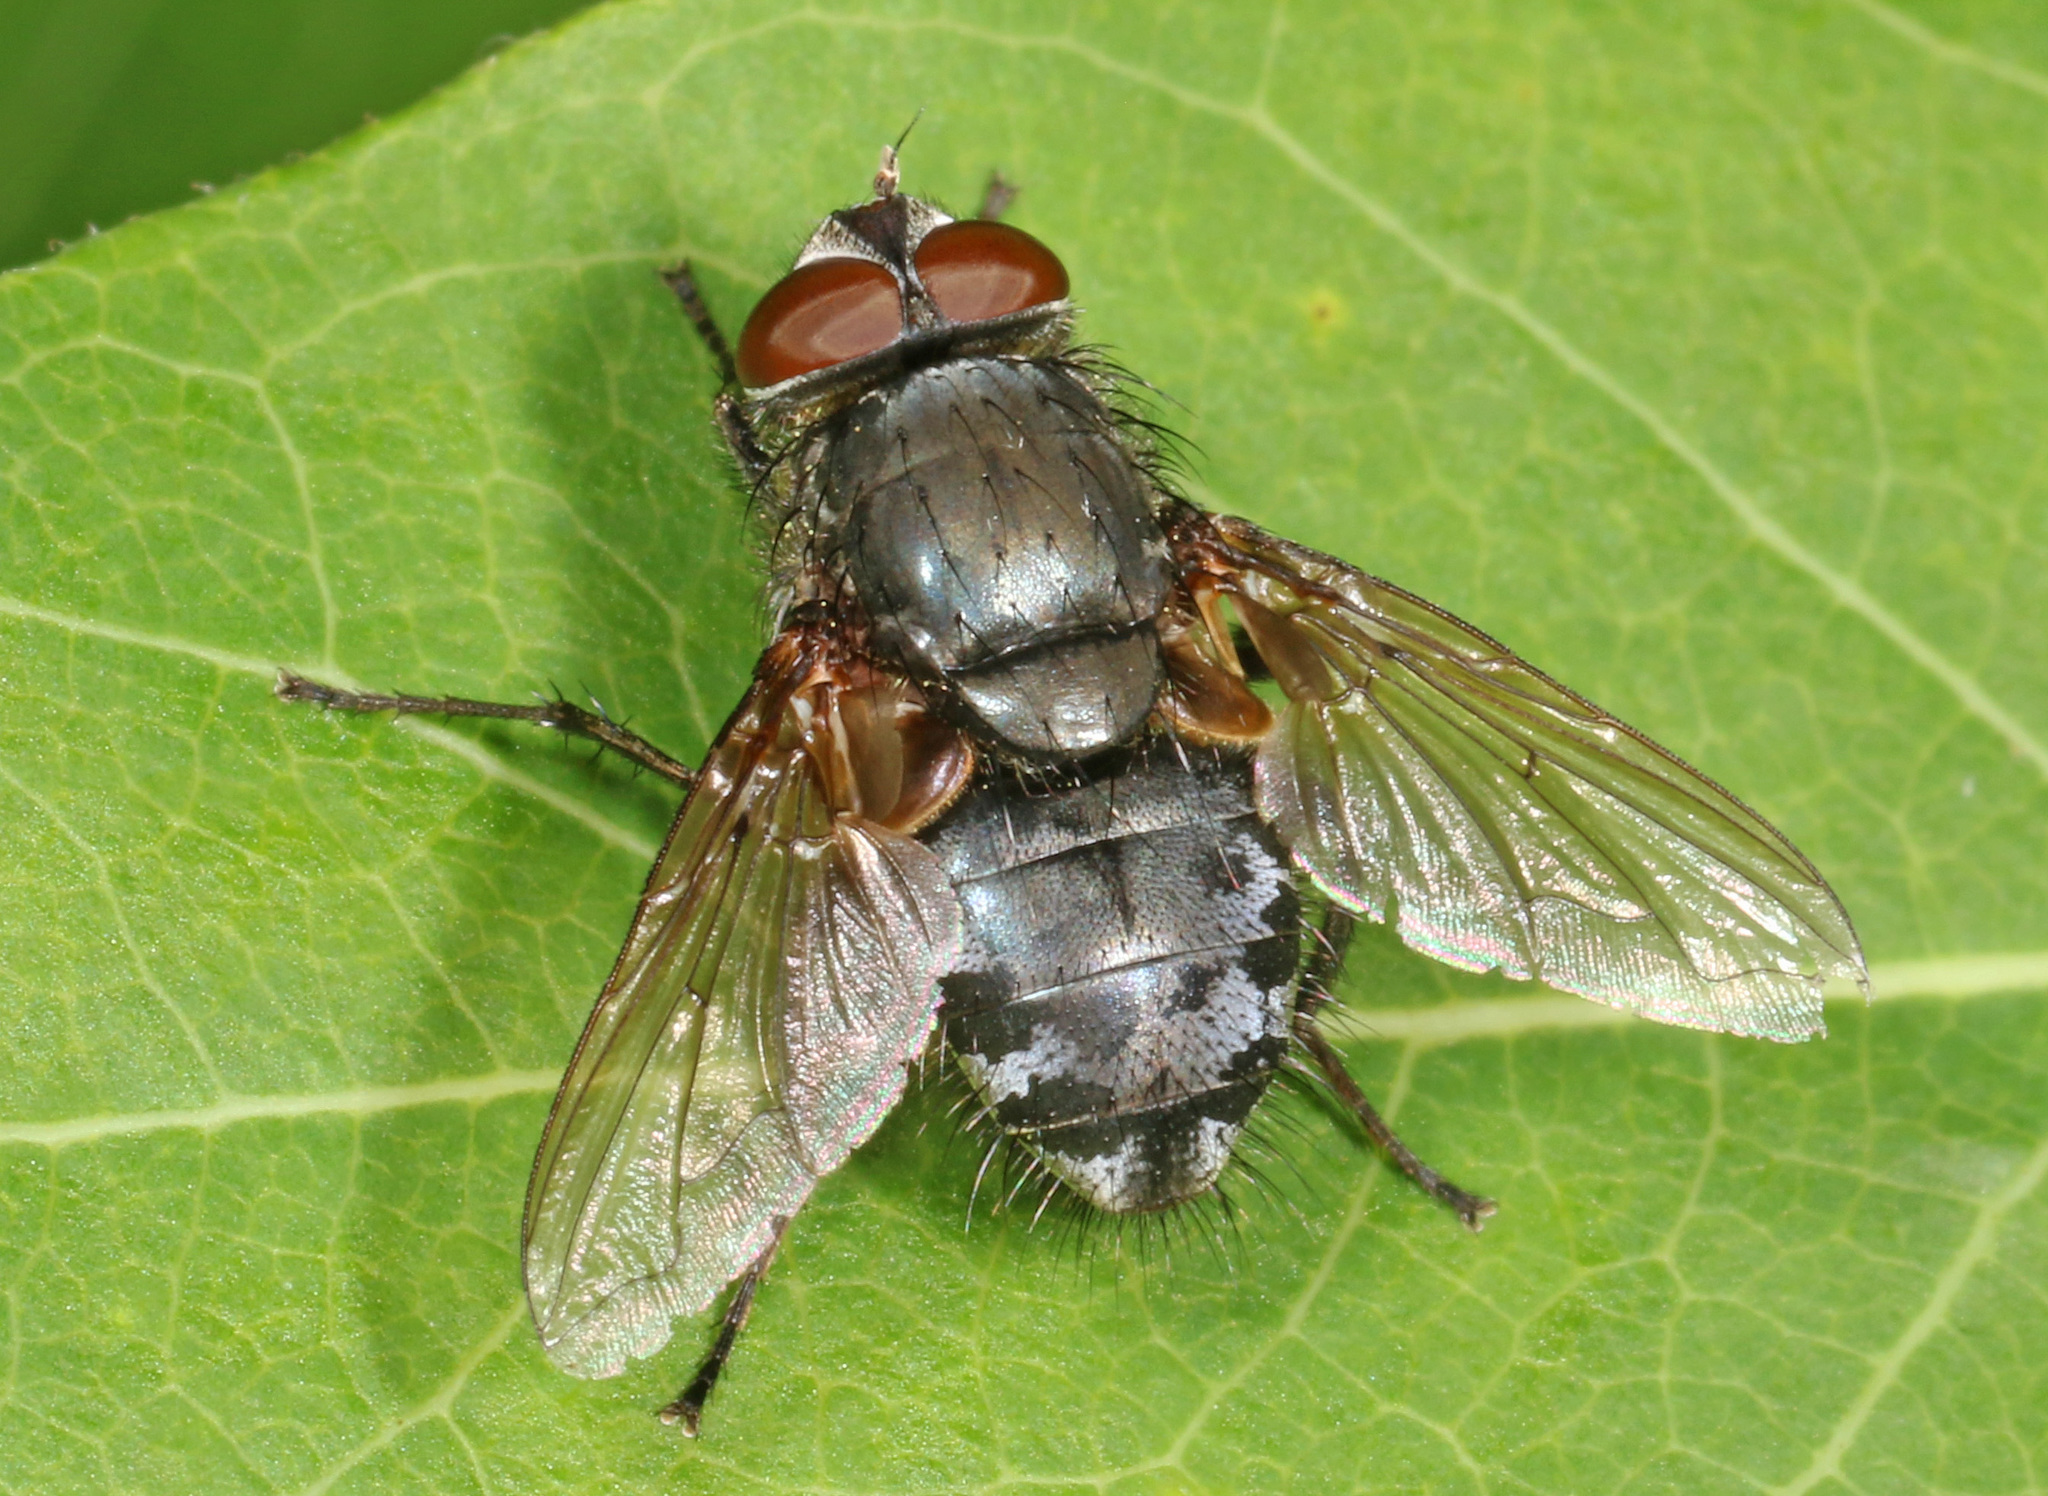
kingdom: Animalia
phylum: Arthropoda
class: Insecta
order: Diptera
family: Polleniidae
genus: Pollenia
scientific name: Pollenia
